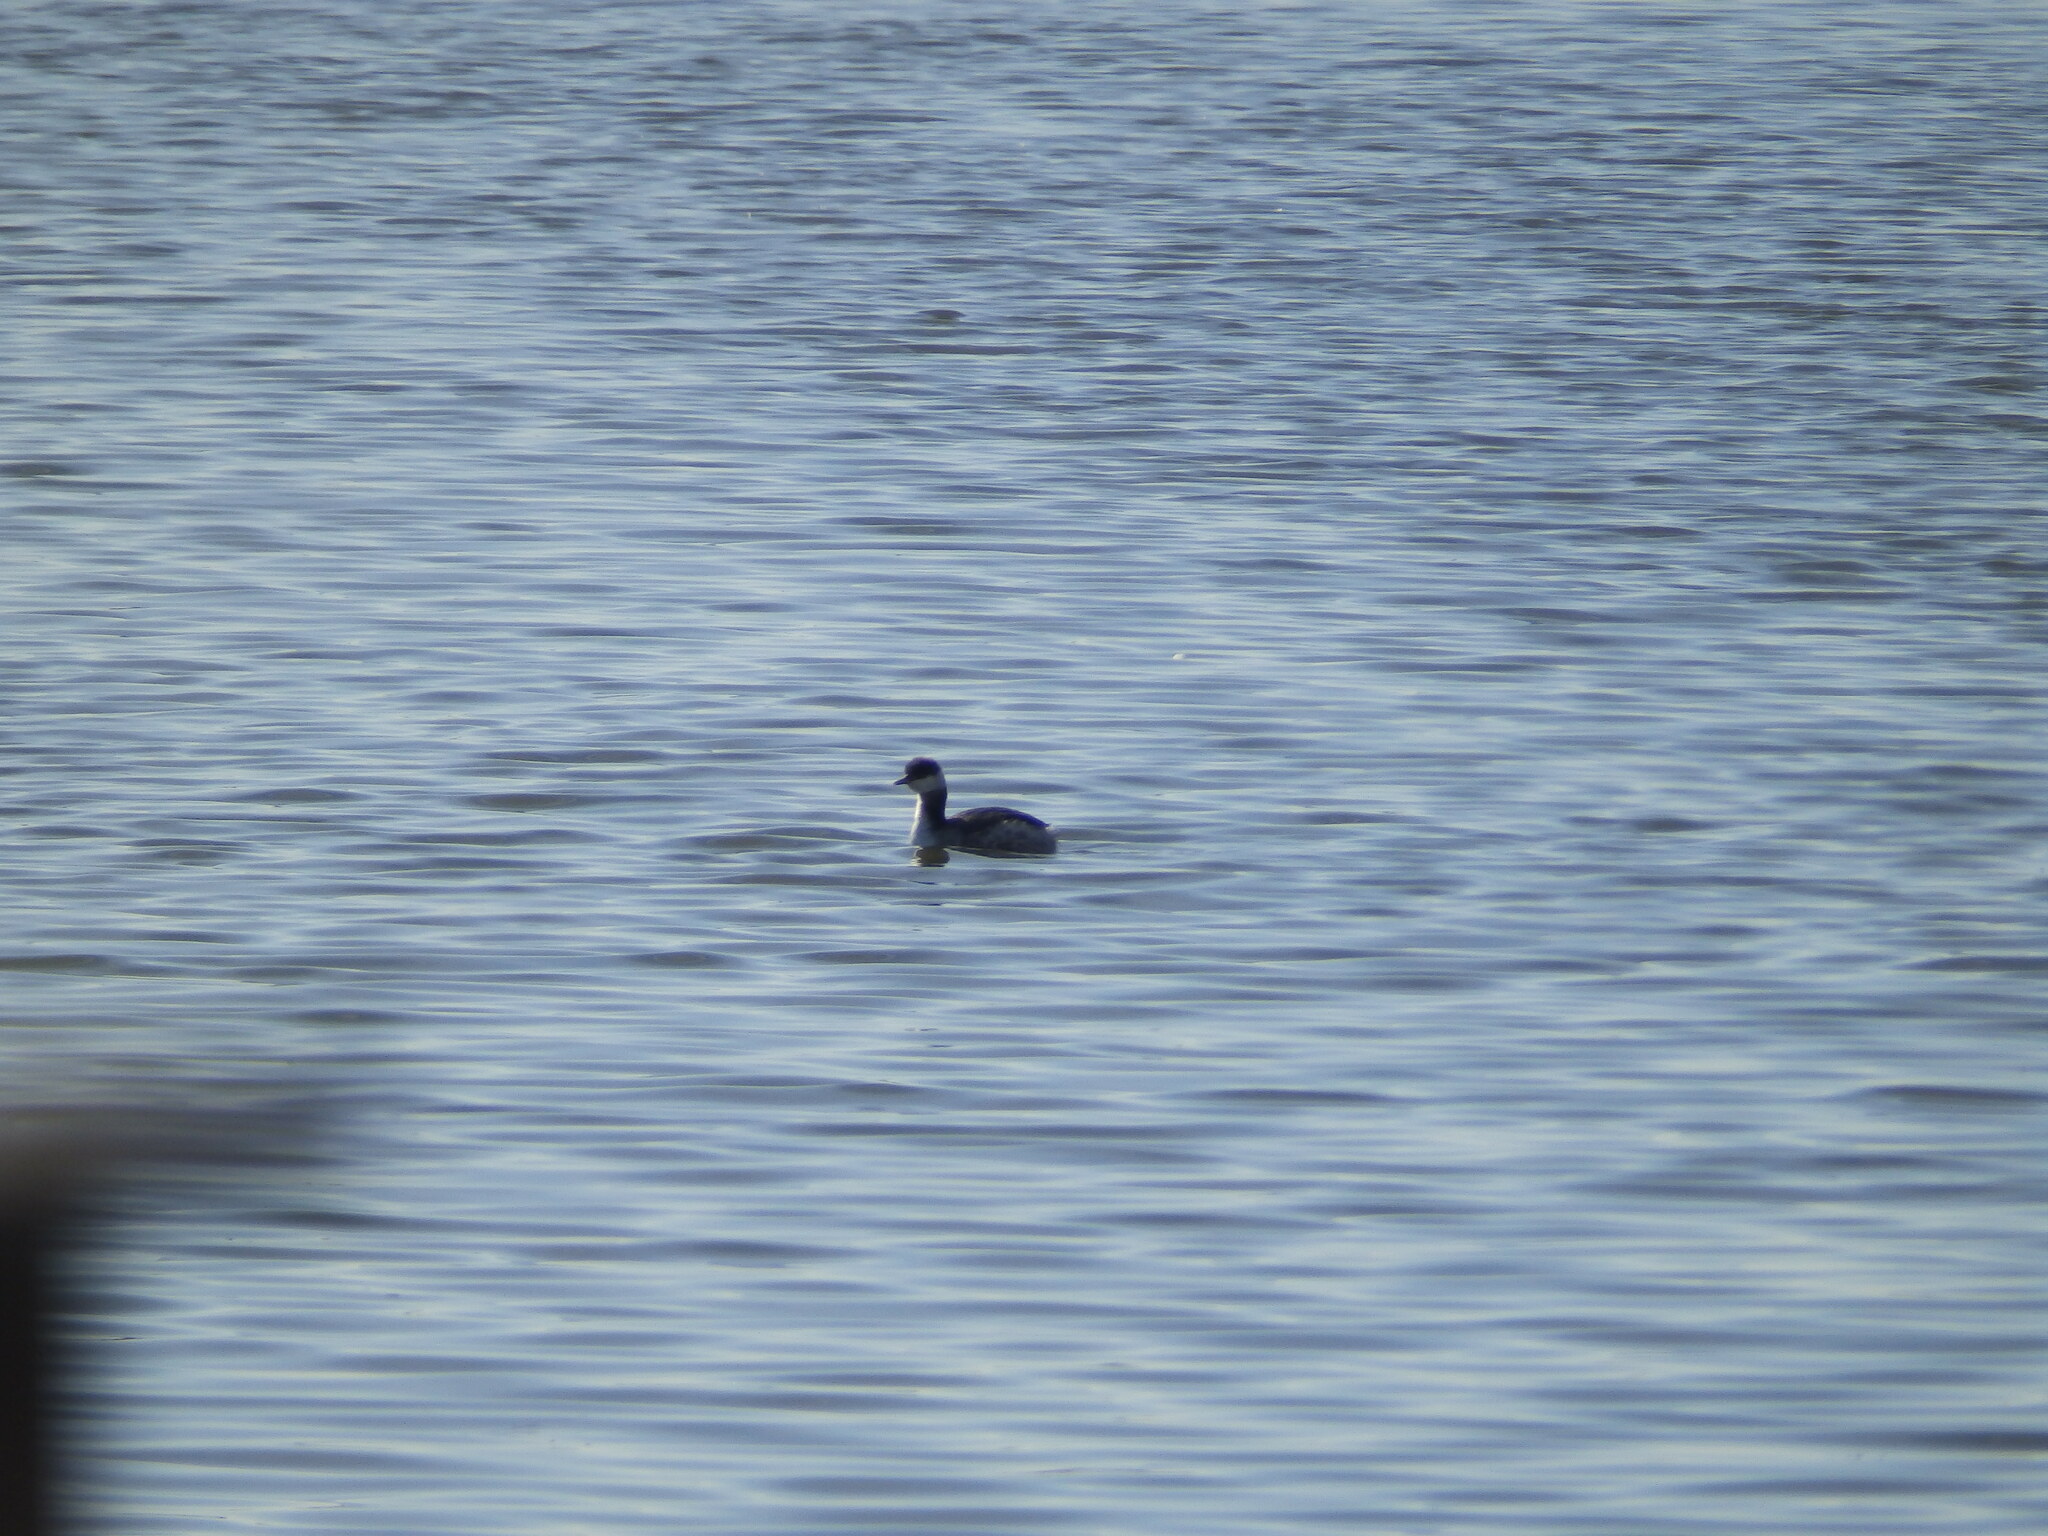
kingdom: Animalia
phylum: Chordata
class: Aves
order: Podicipediformes
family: Podicipedidae
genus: Podiceps
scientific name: Podiceps auritus
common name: Horned grebe
